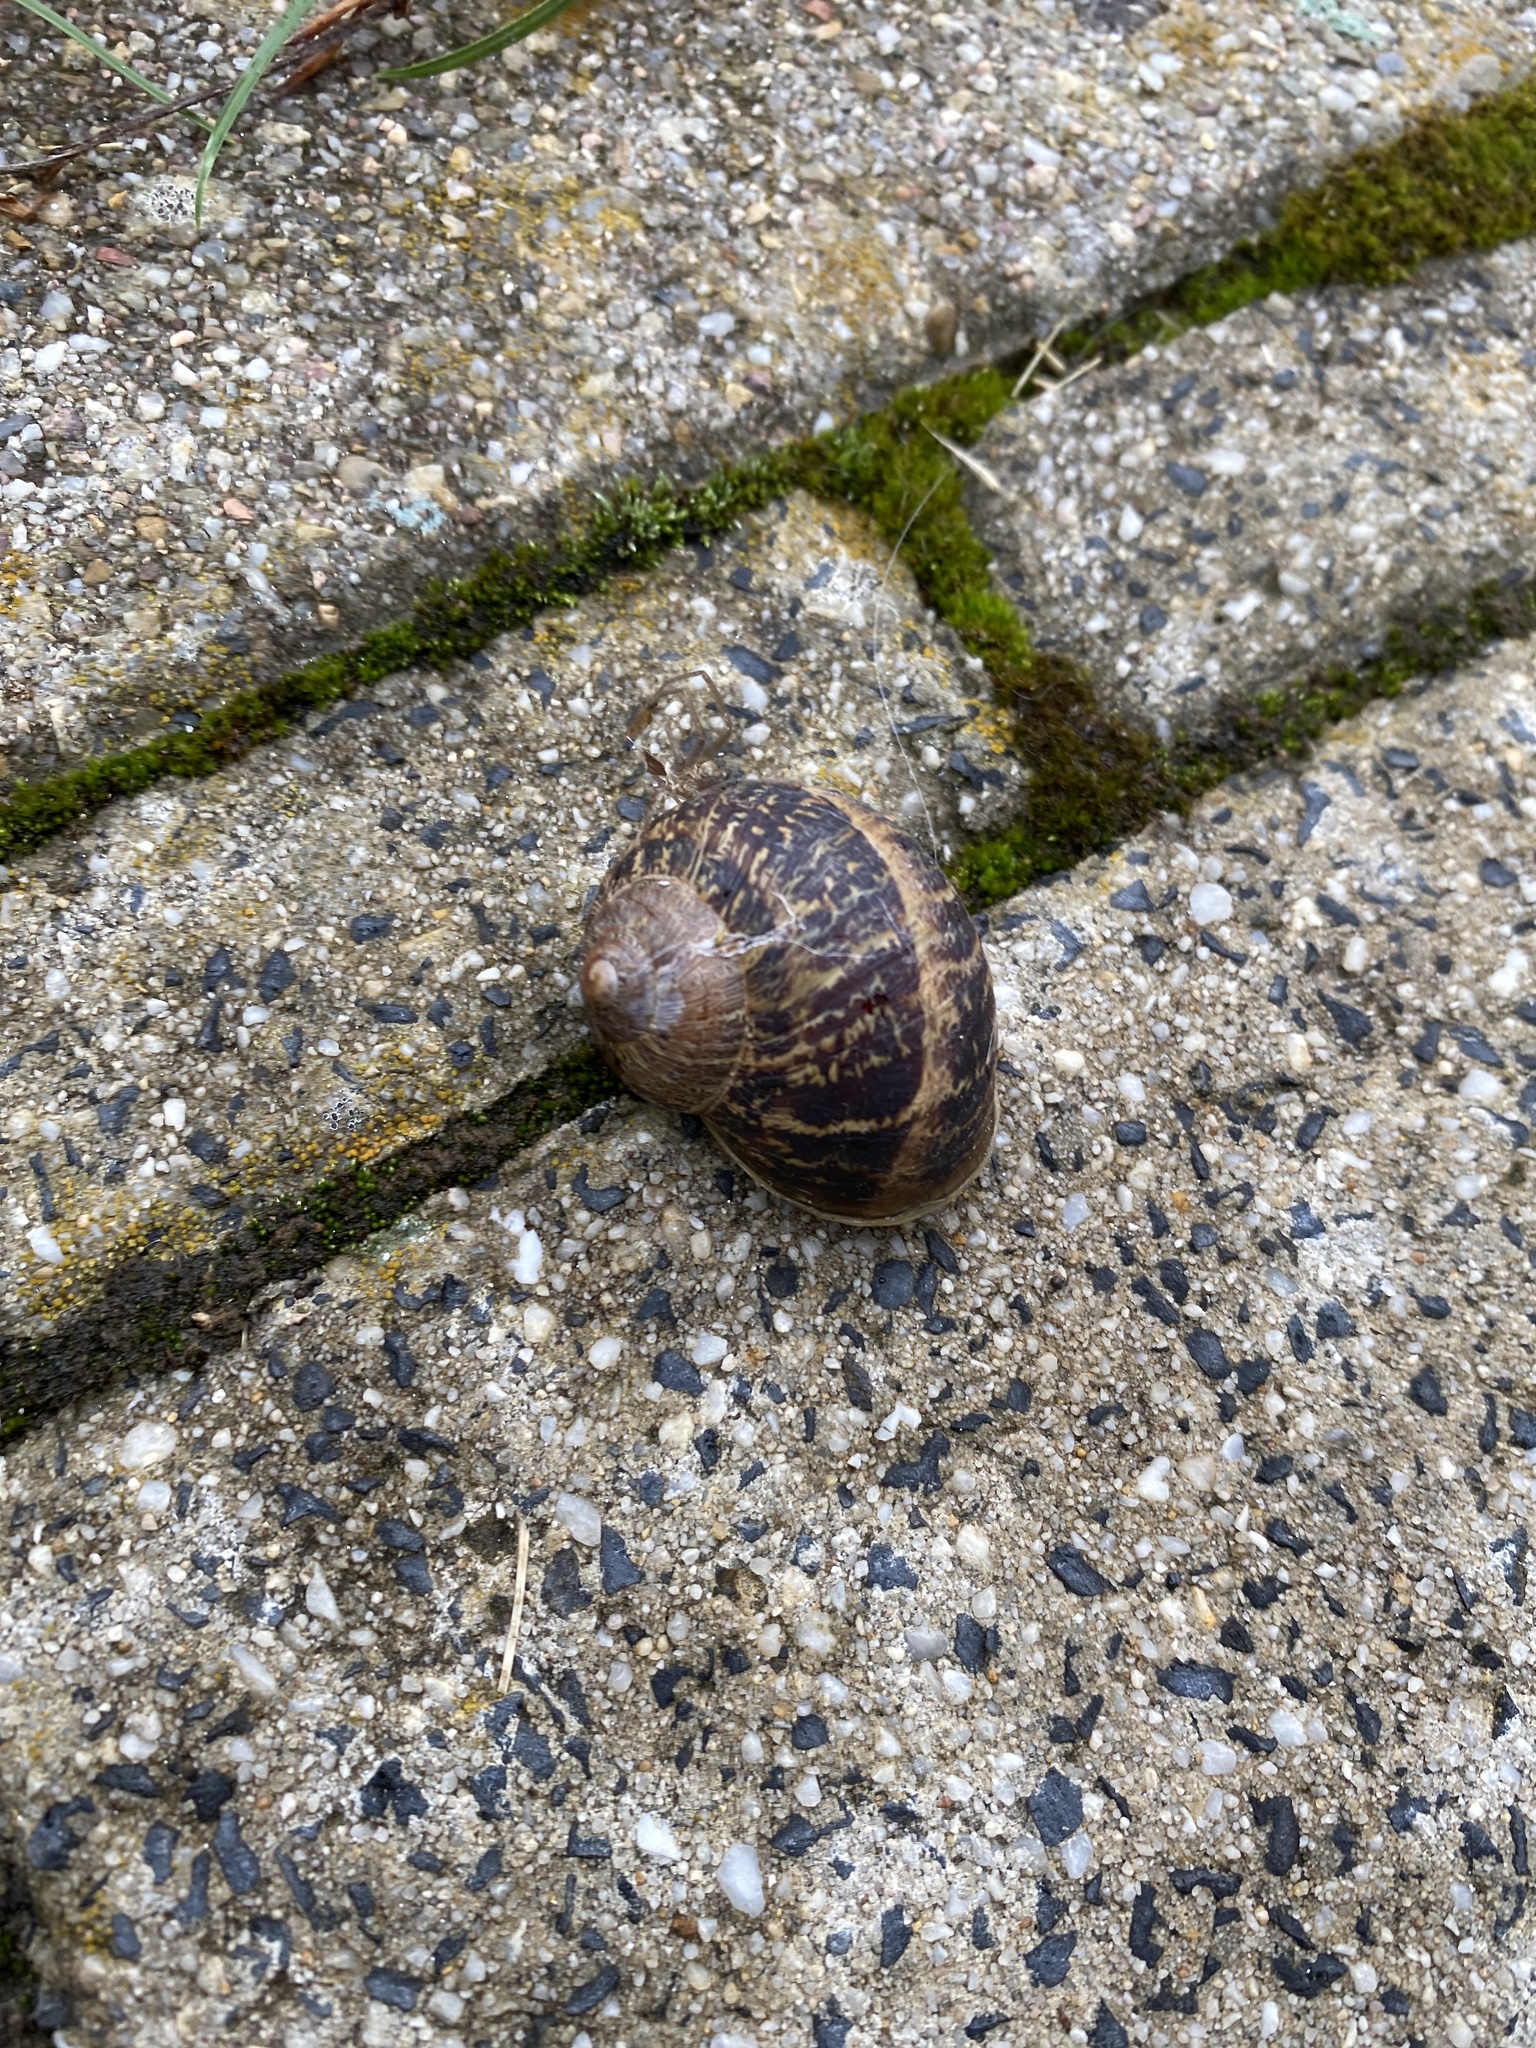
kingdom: Animalia
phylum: Mollusca
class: Gastropoda
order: Stylommatophora
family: Helicidae
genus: Cornu
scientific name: Cornu aspersum
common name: Brown garden snail
